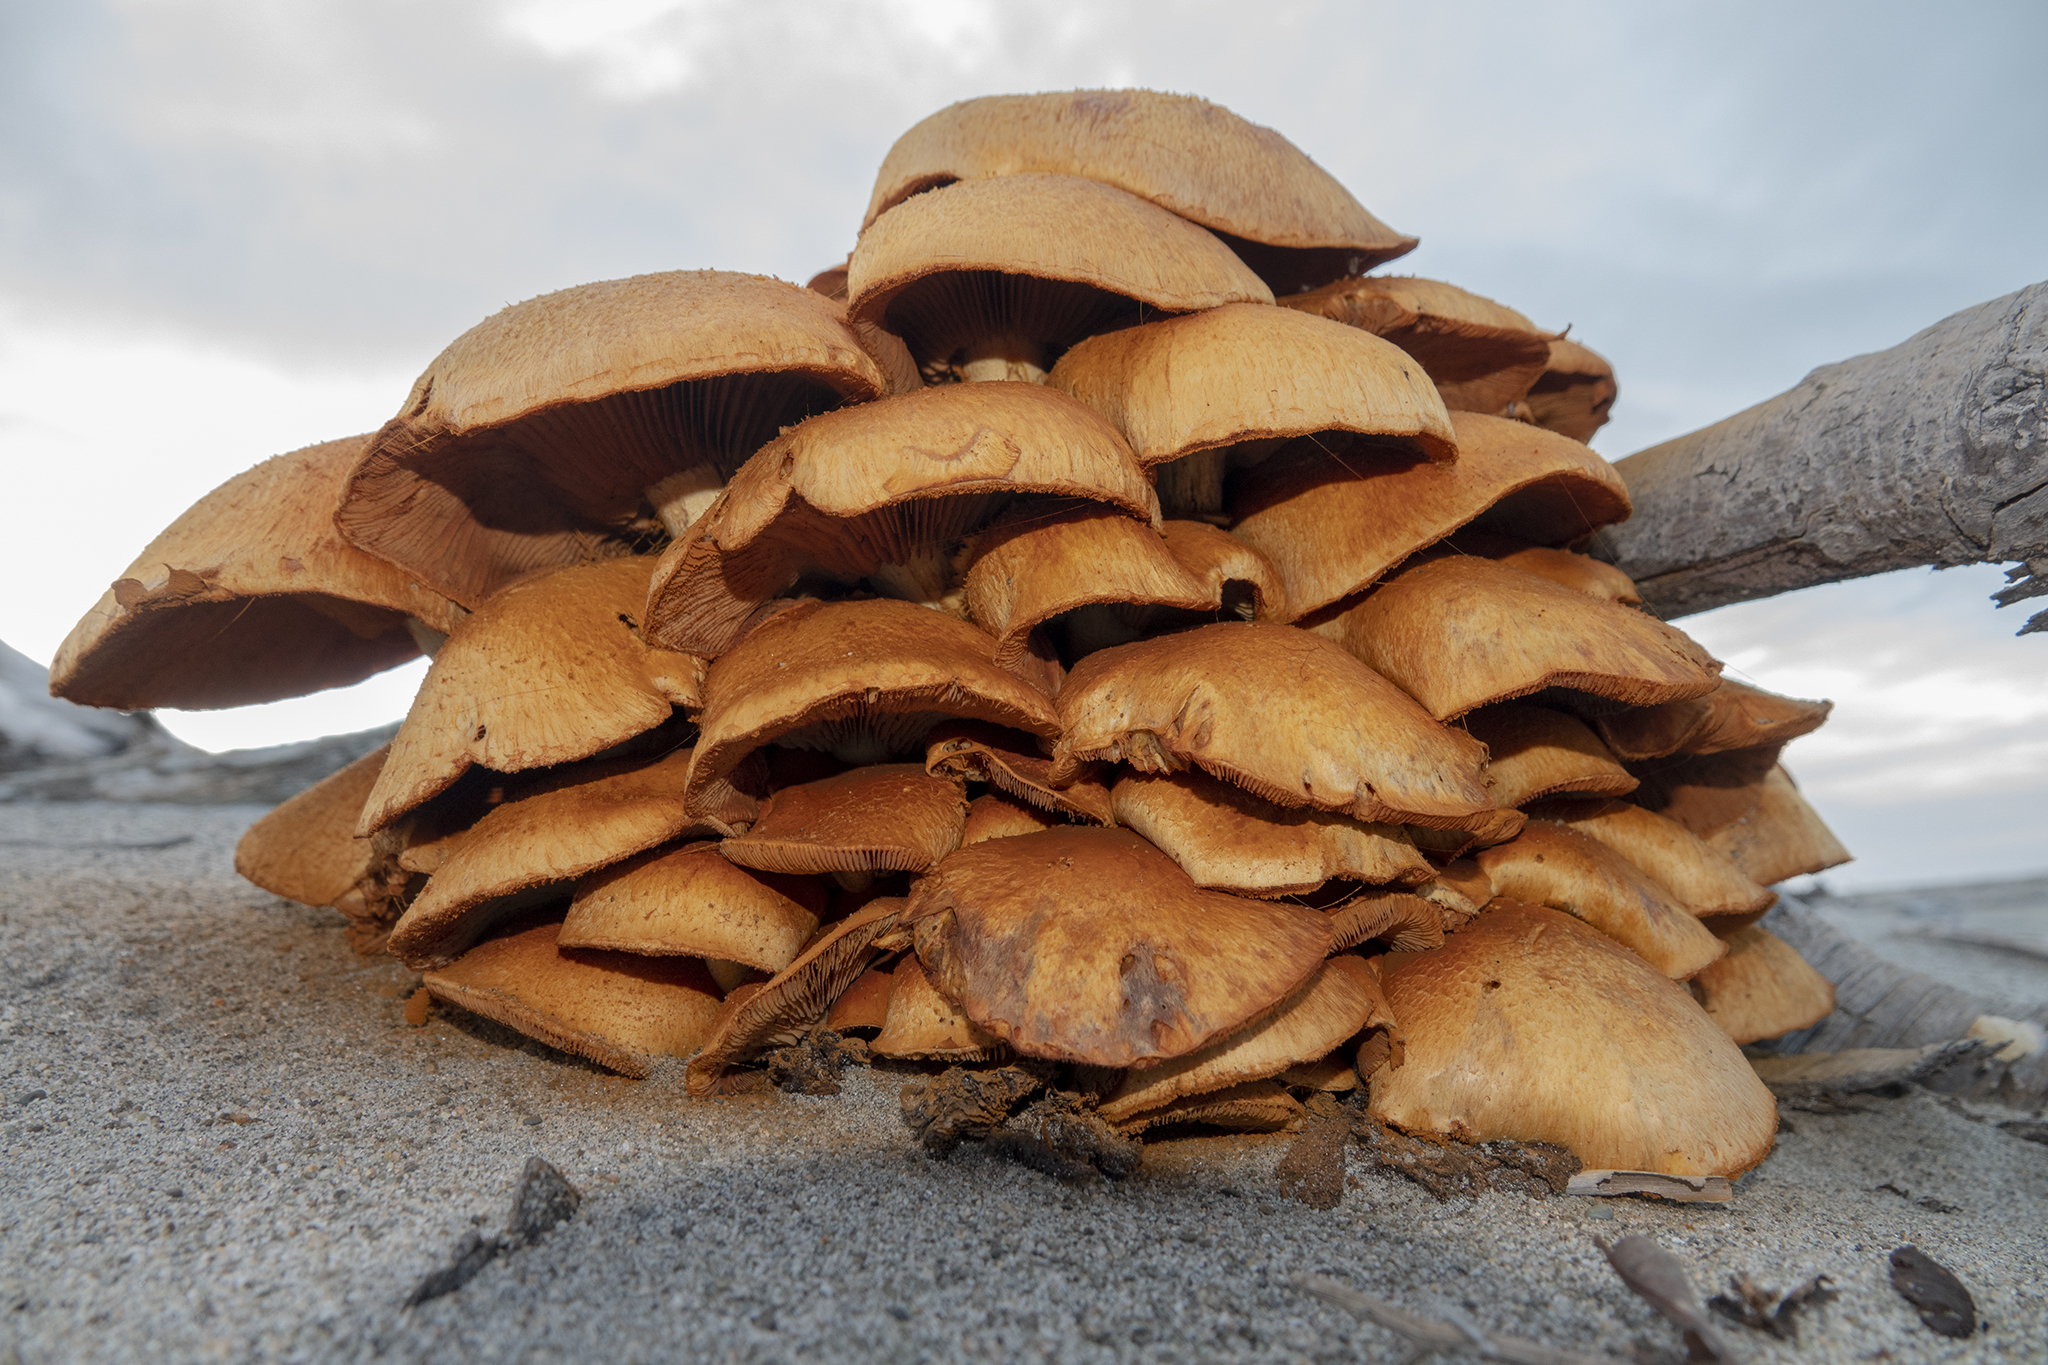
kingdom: Fungi
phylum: Basidiomycota
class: Agaricomycetes
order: Agaricales
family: Hymenogastraceae
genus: Gymnopilus
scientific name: Gymnopilus junonius
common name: Spectacular rustgill
